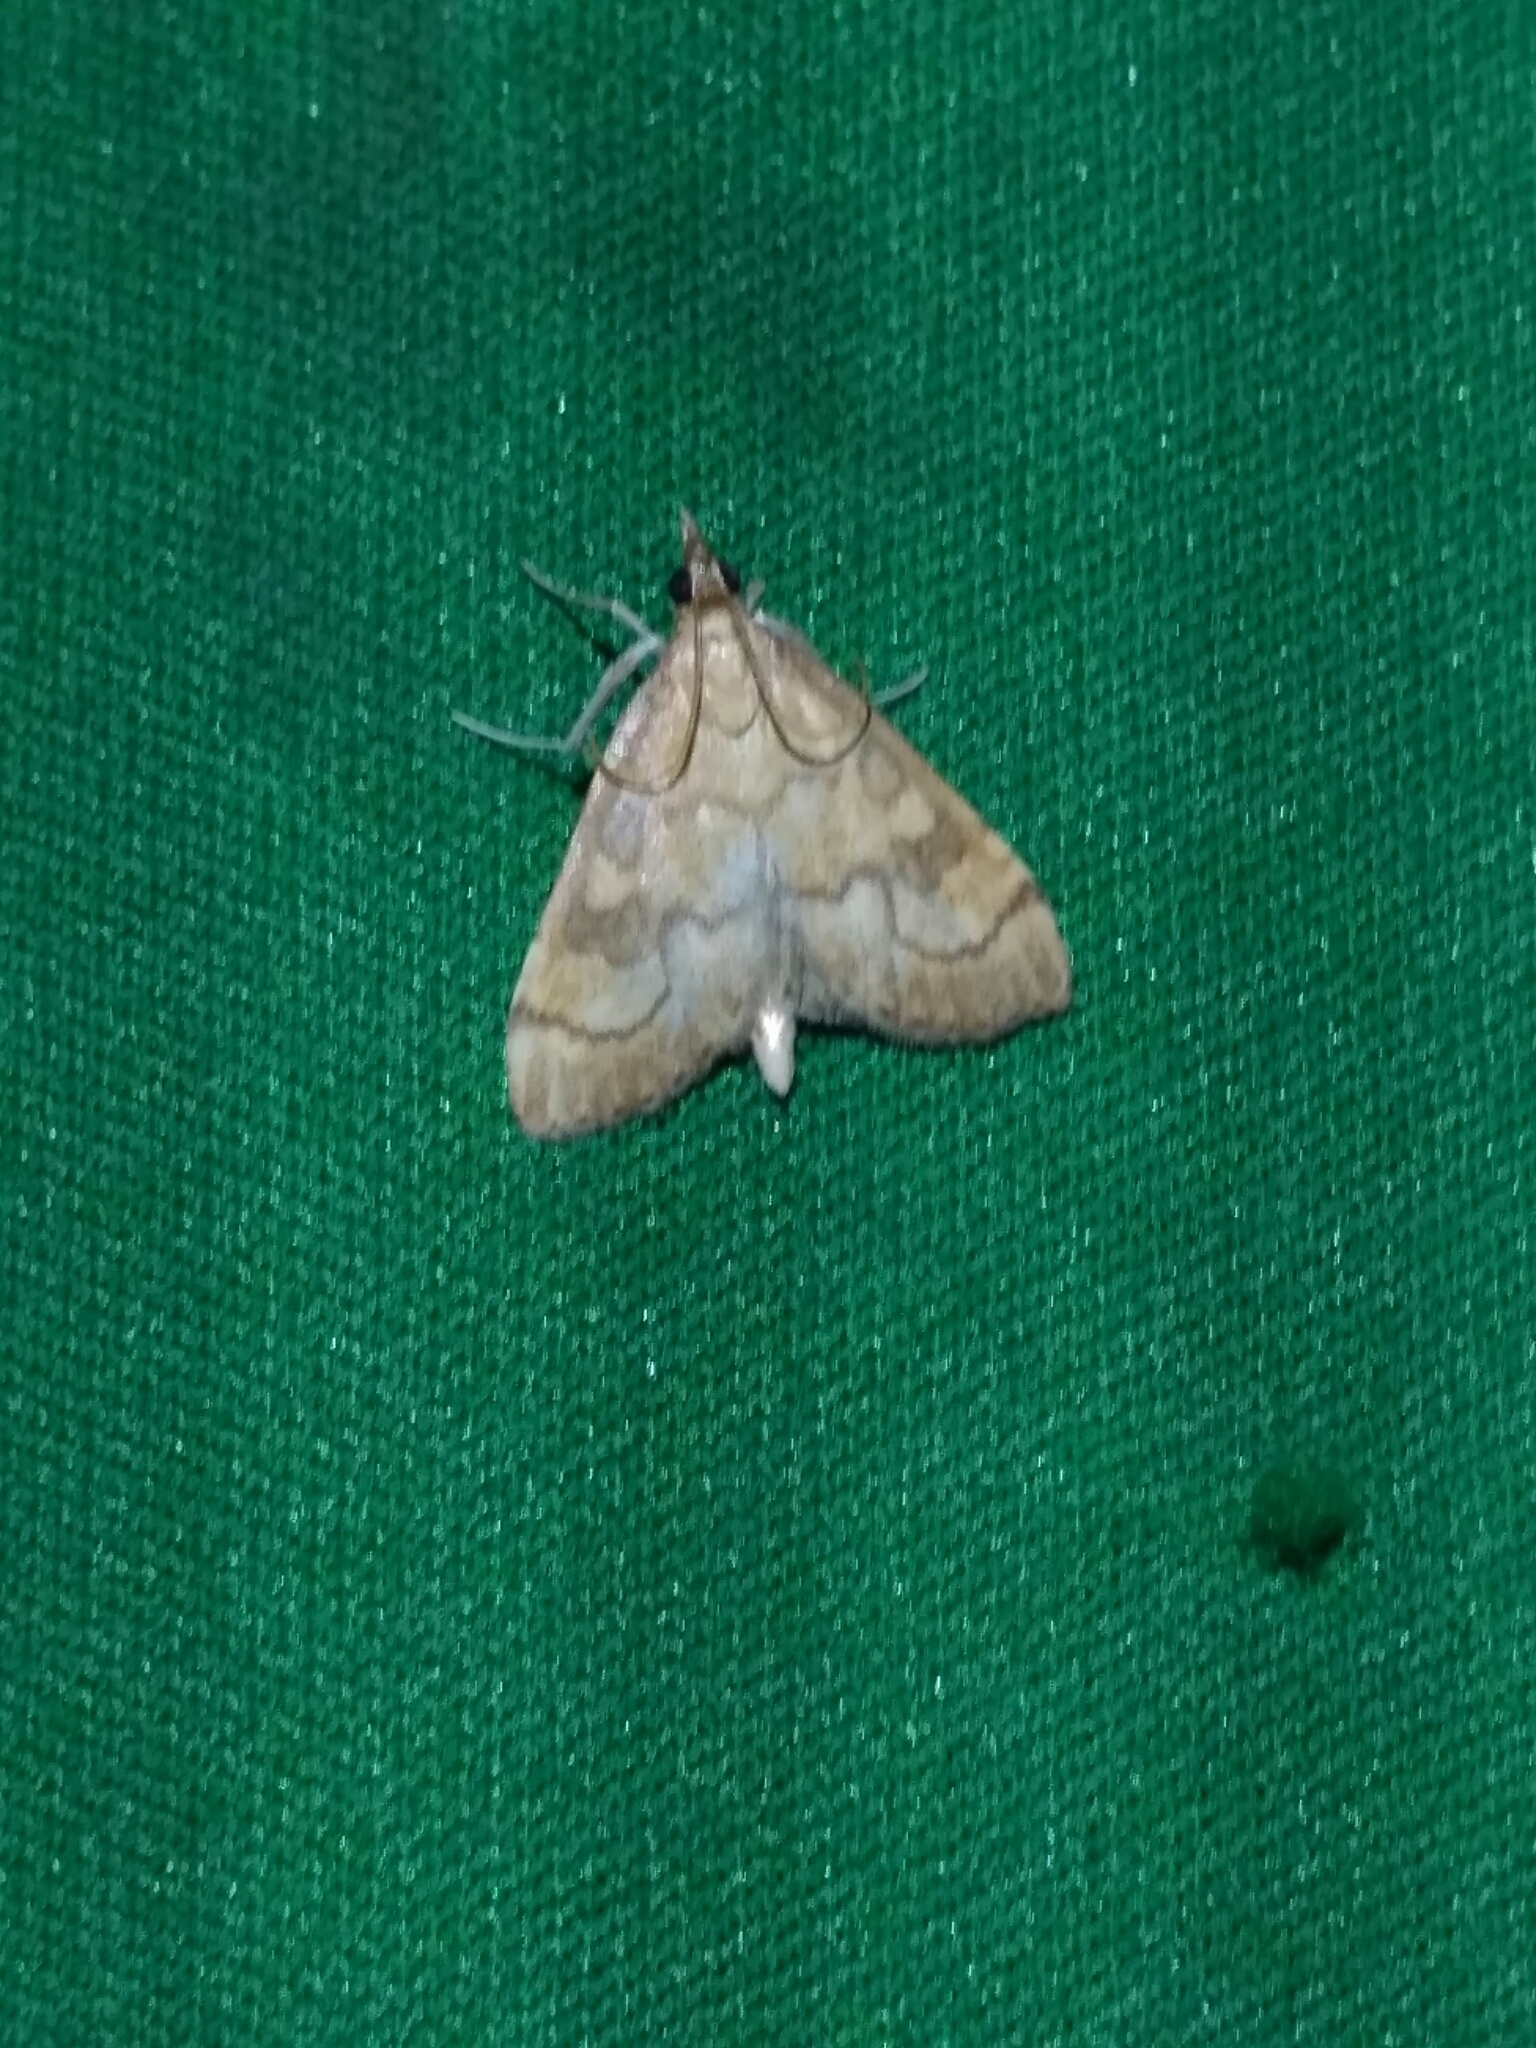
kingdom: Animalia
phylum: Arthropoda
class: Insecta
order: Lepidoptera
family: Crambidae
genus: Udea
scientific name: Udea fulvalis
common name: Fulvous pearl
